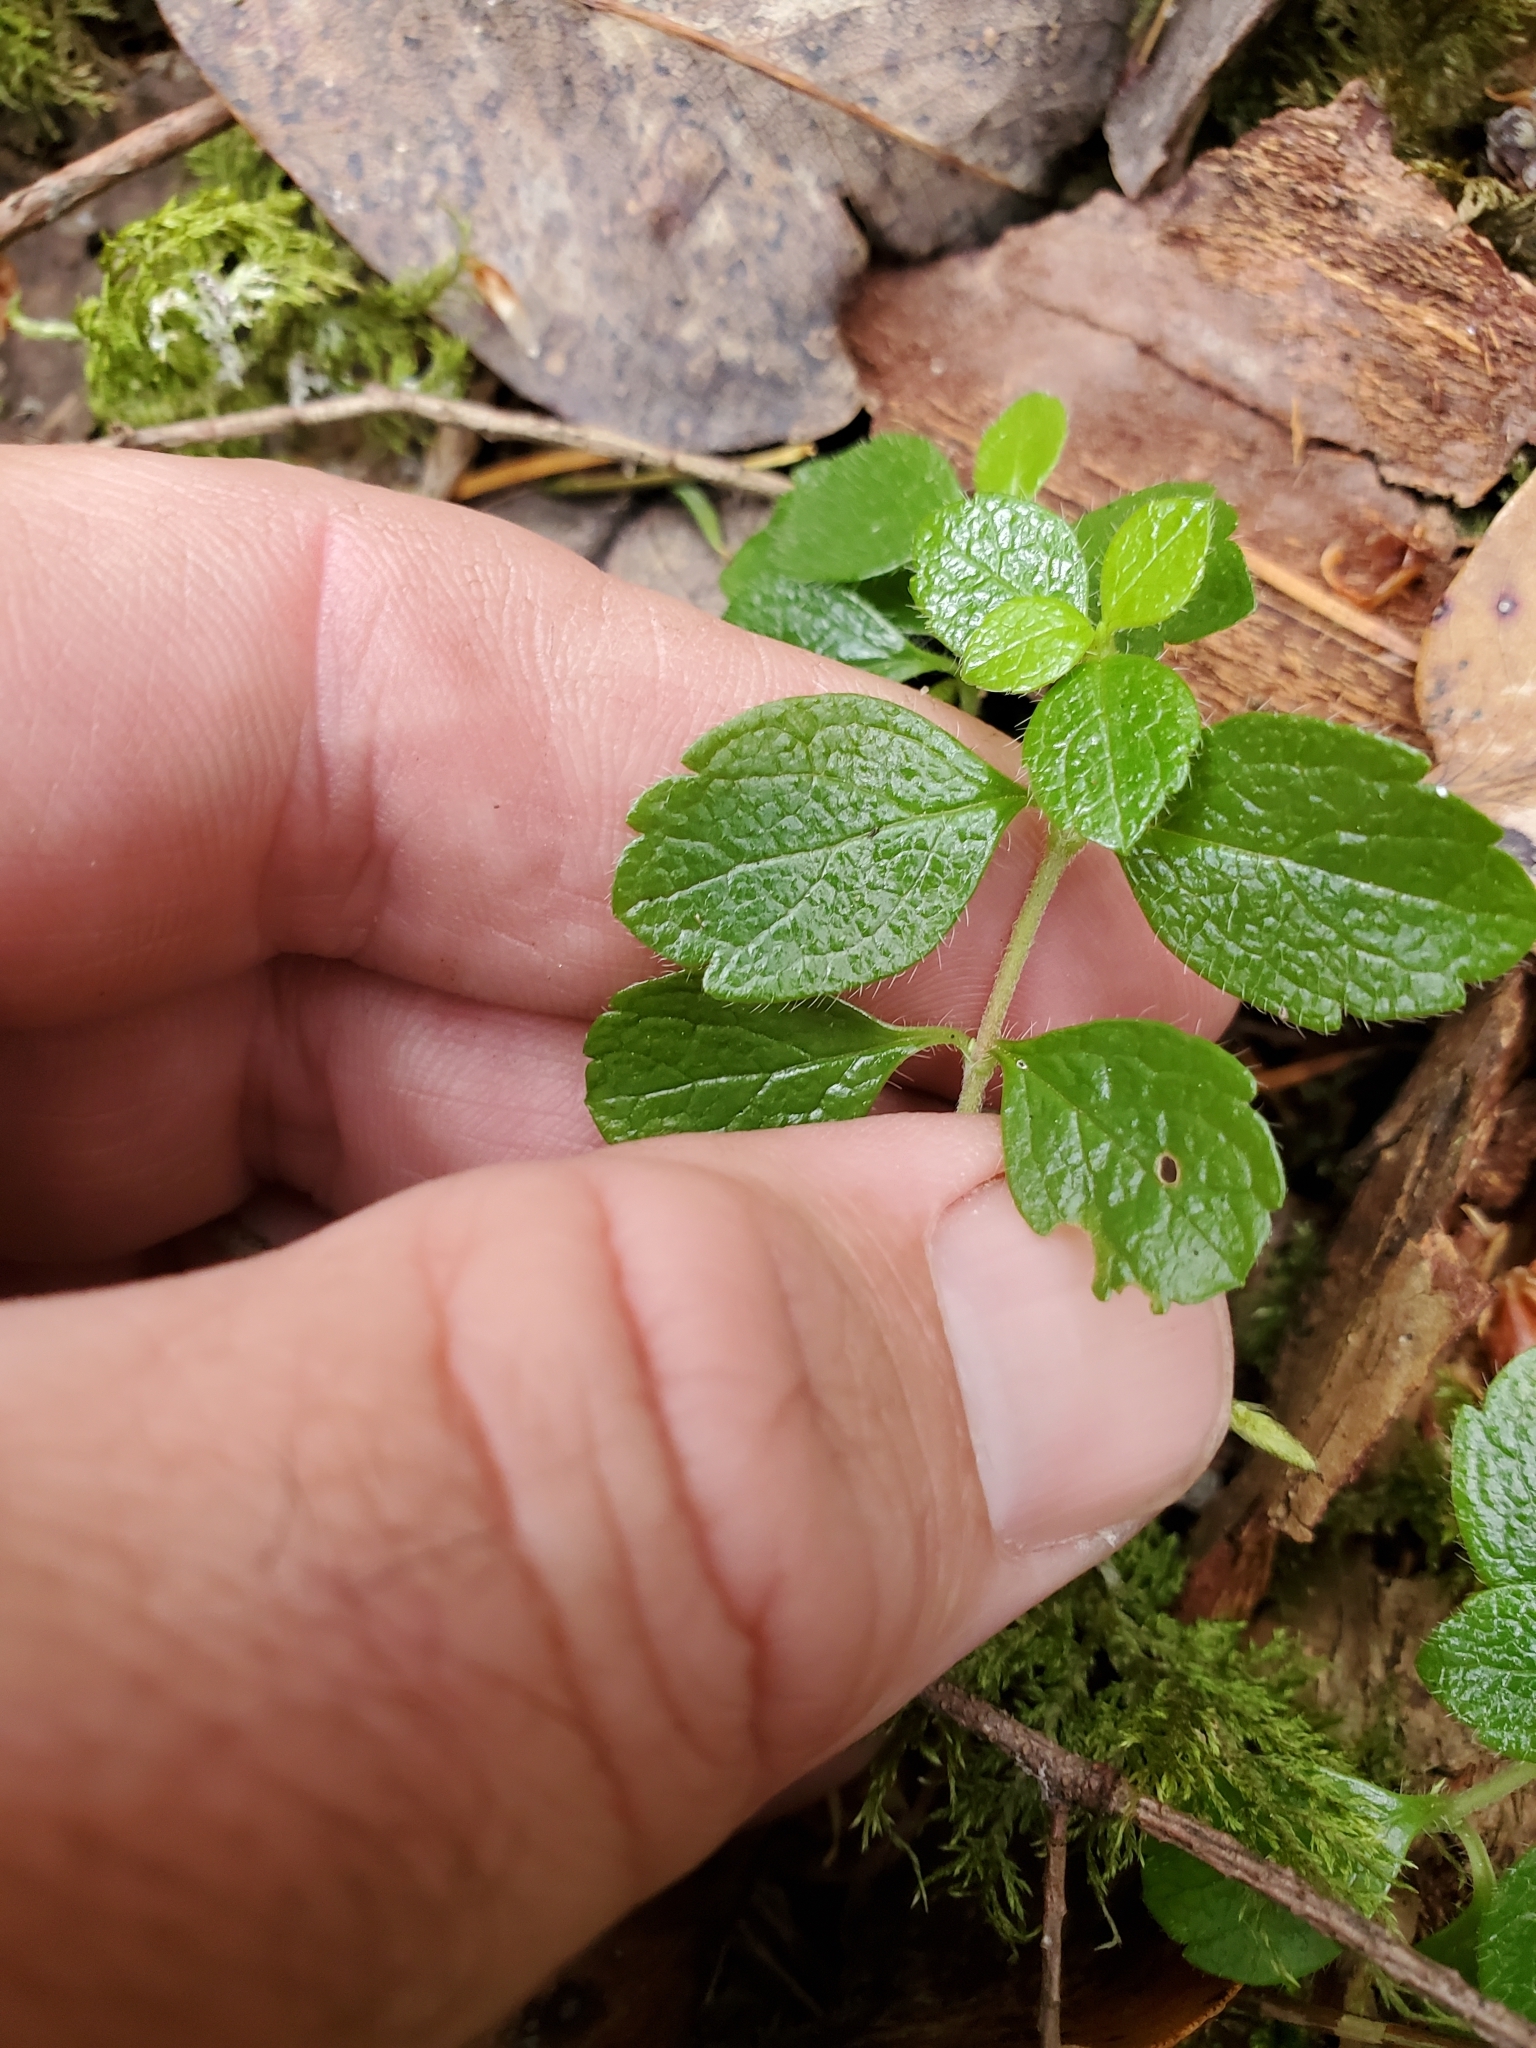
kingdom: Plantae
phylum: Tracheophyta
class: Magnoliopsida
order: Dipsacales
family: Caprifoliaceae
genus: Linnaea
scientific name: Linnaea borealis
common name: Twinflower
